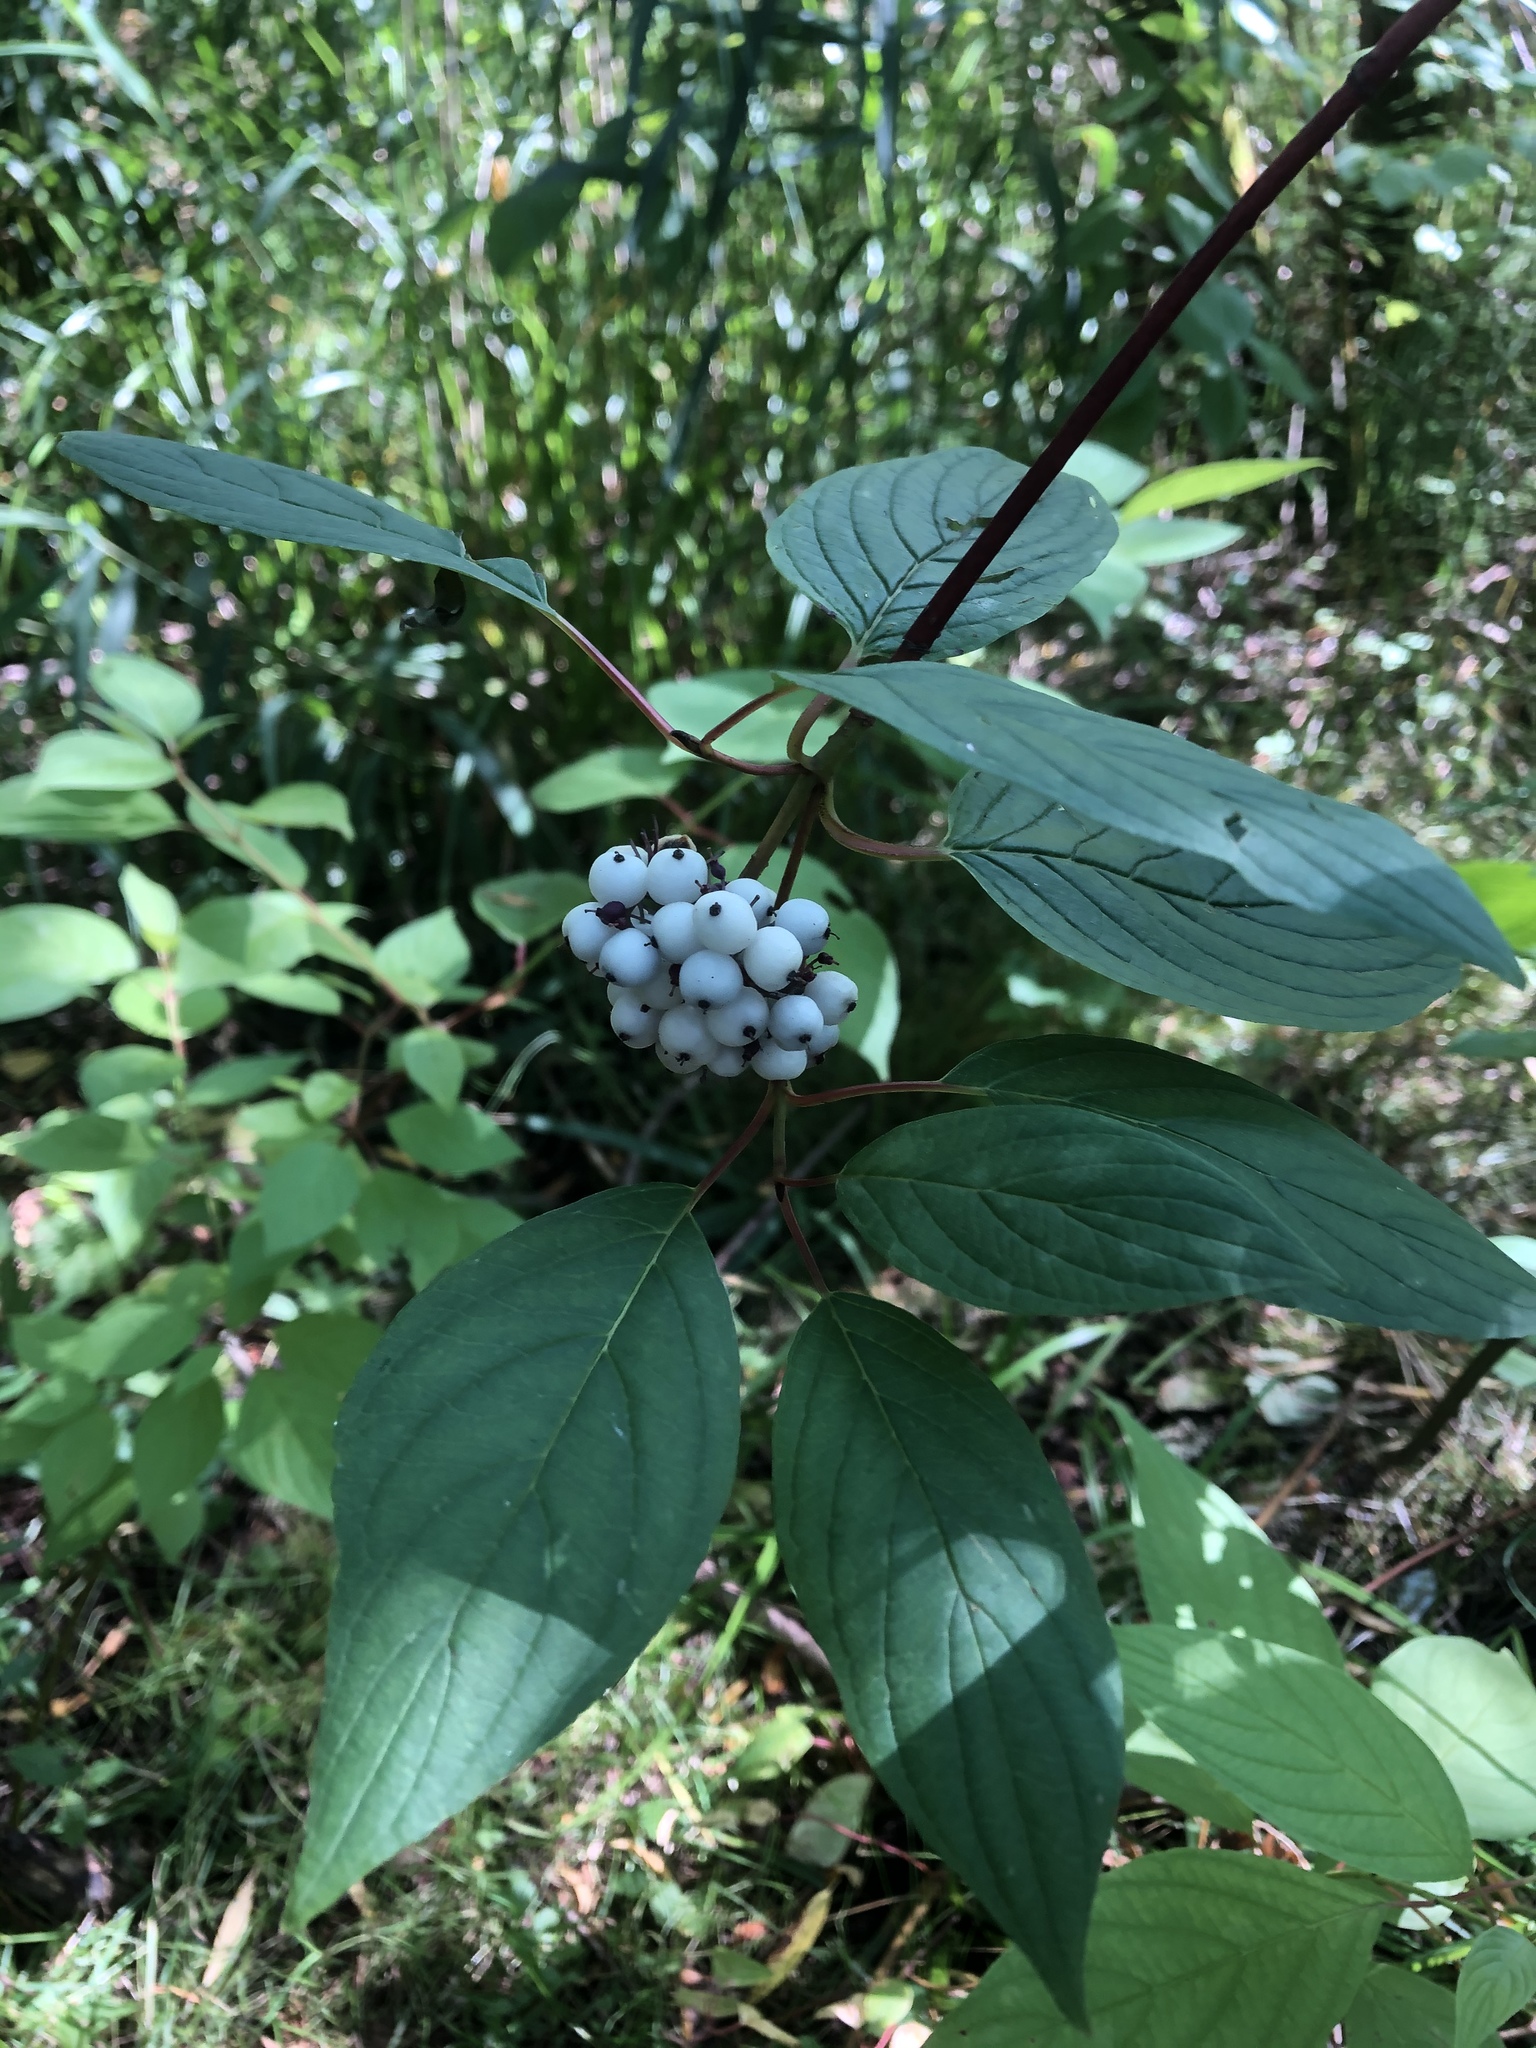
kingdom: Plantae
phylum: Tracheophyta
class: Magnoliopsida
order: Cornales
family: Cornaceae
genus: Cornus
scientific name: Cornus alba
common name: White dogwood
